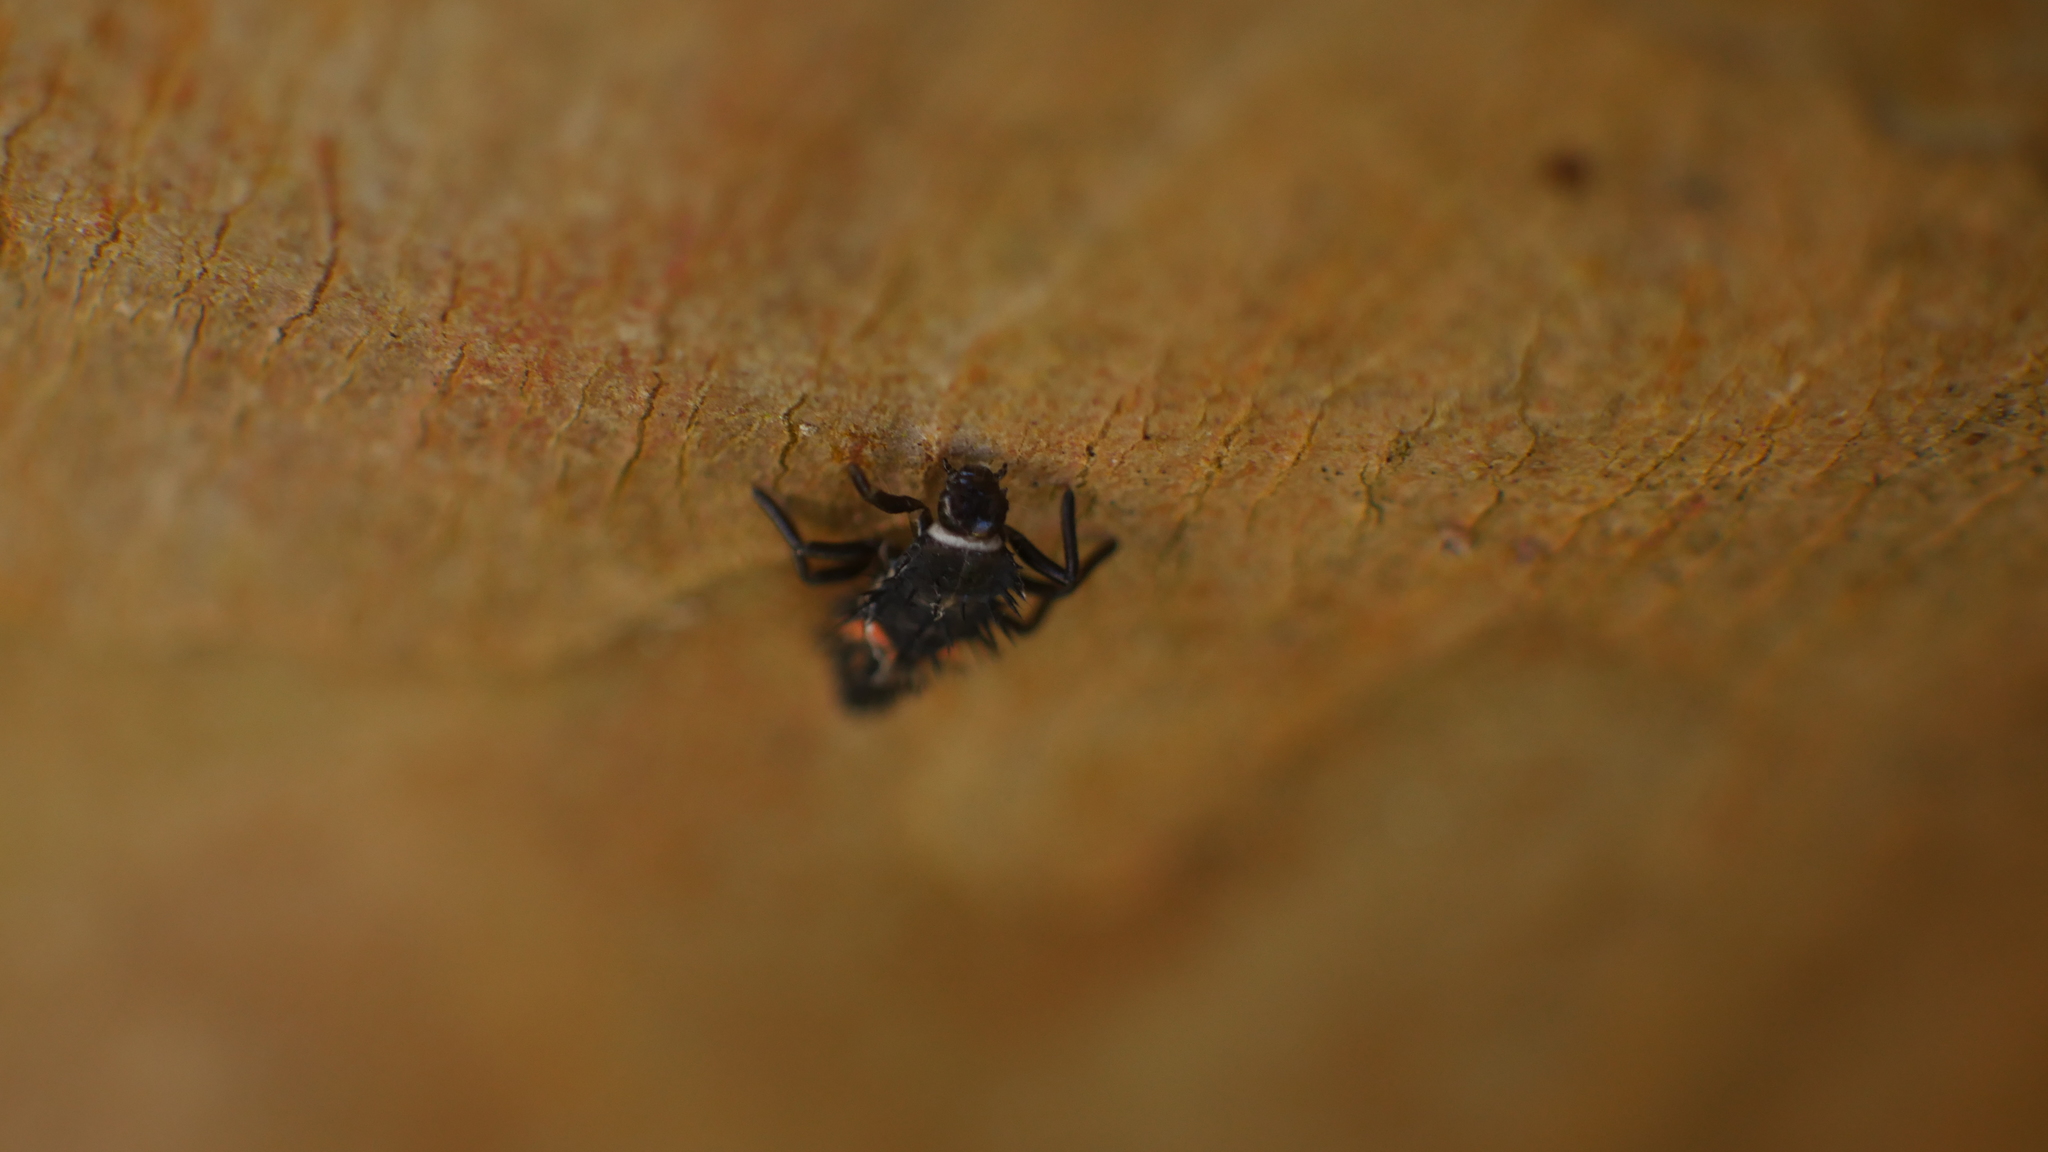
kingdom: Animalia
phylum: Arthropoda
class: Insecta
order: Coleoptera
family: Coccinellidae
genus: Harmonia
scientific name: Harmonia axyridis
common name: Harlequin ladybird
